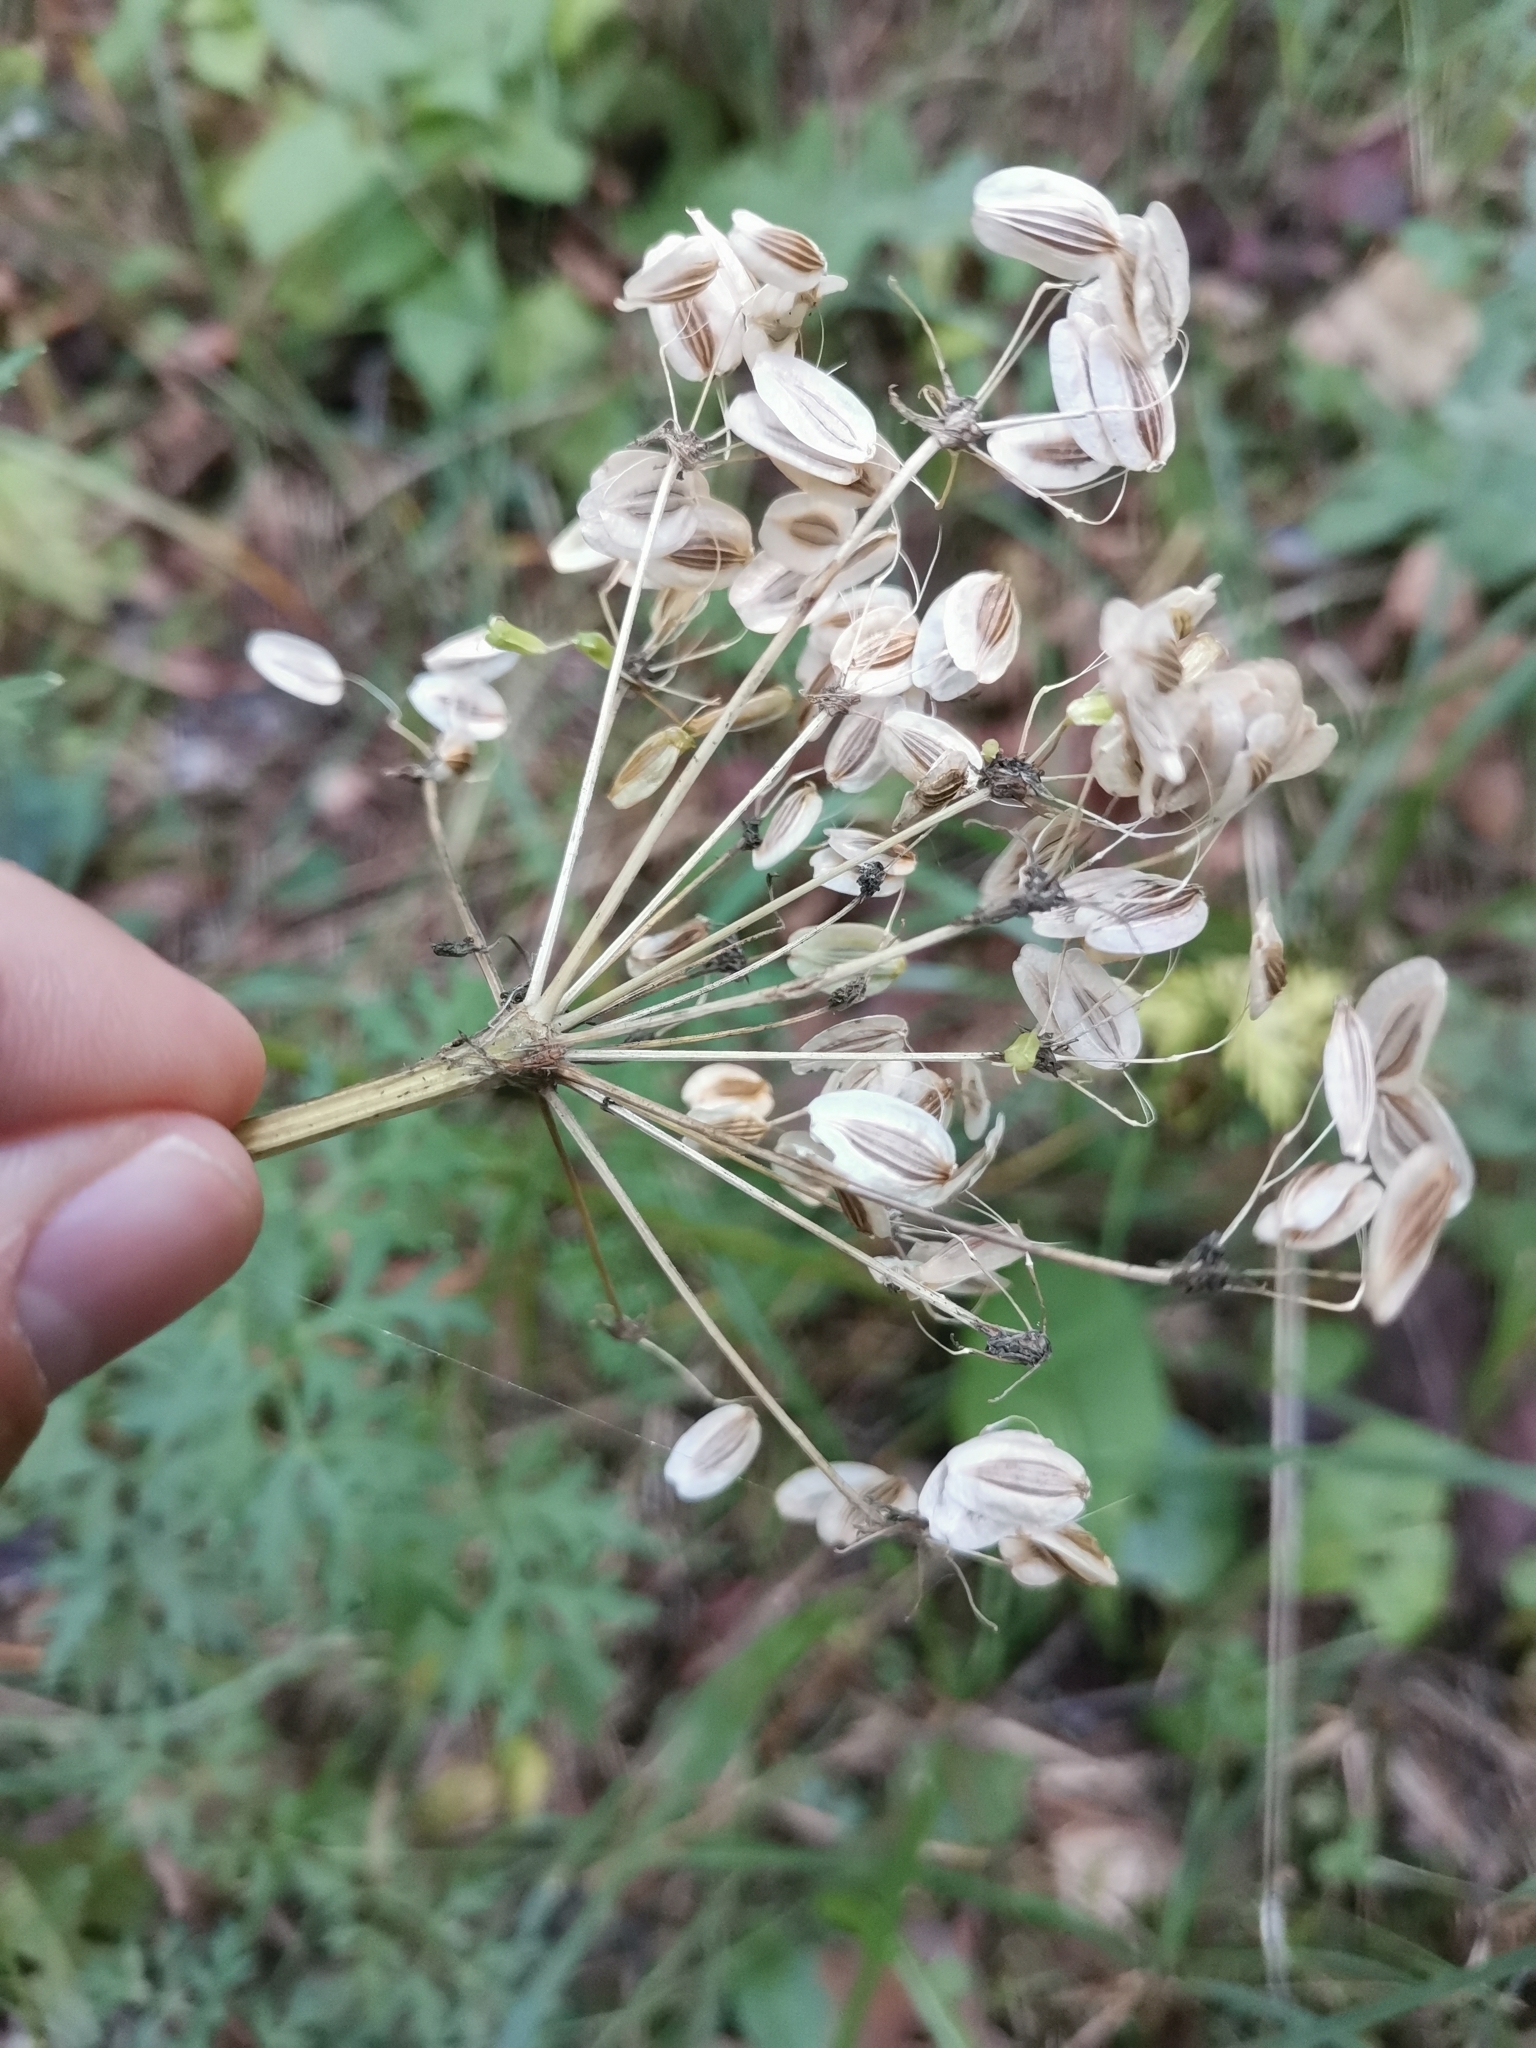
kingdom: Plantae
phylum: Tracheophyta
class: Magnoliopsida
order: Apiales
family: Apiaceae
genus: Peucedanum
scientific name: Peucedanum austriacum
